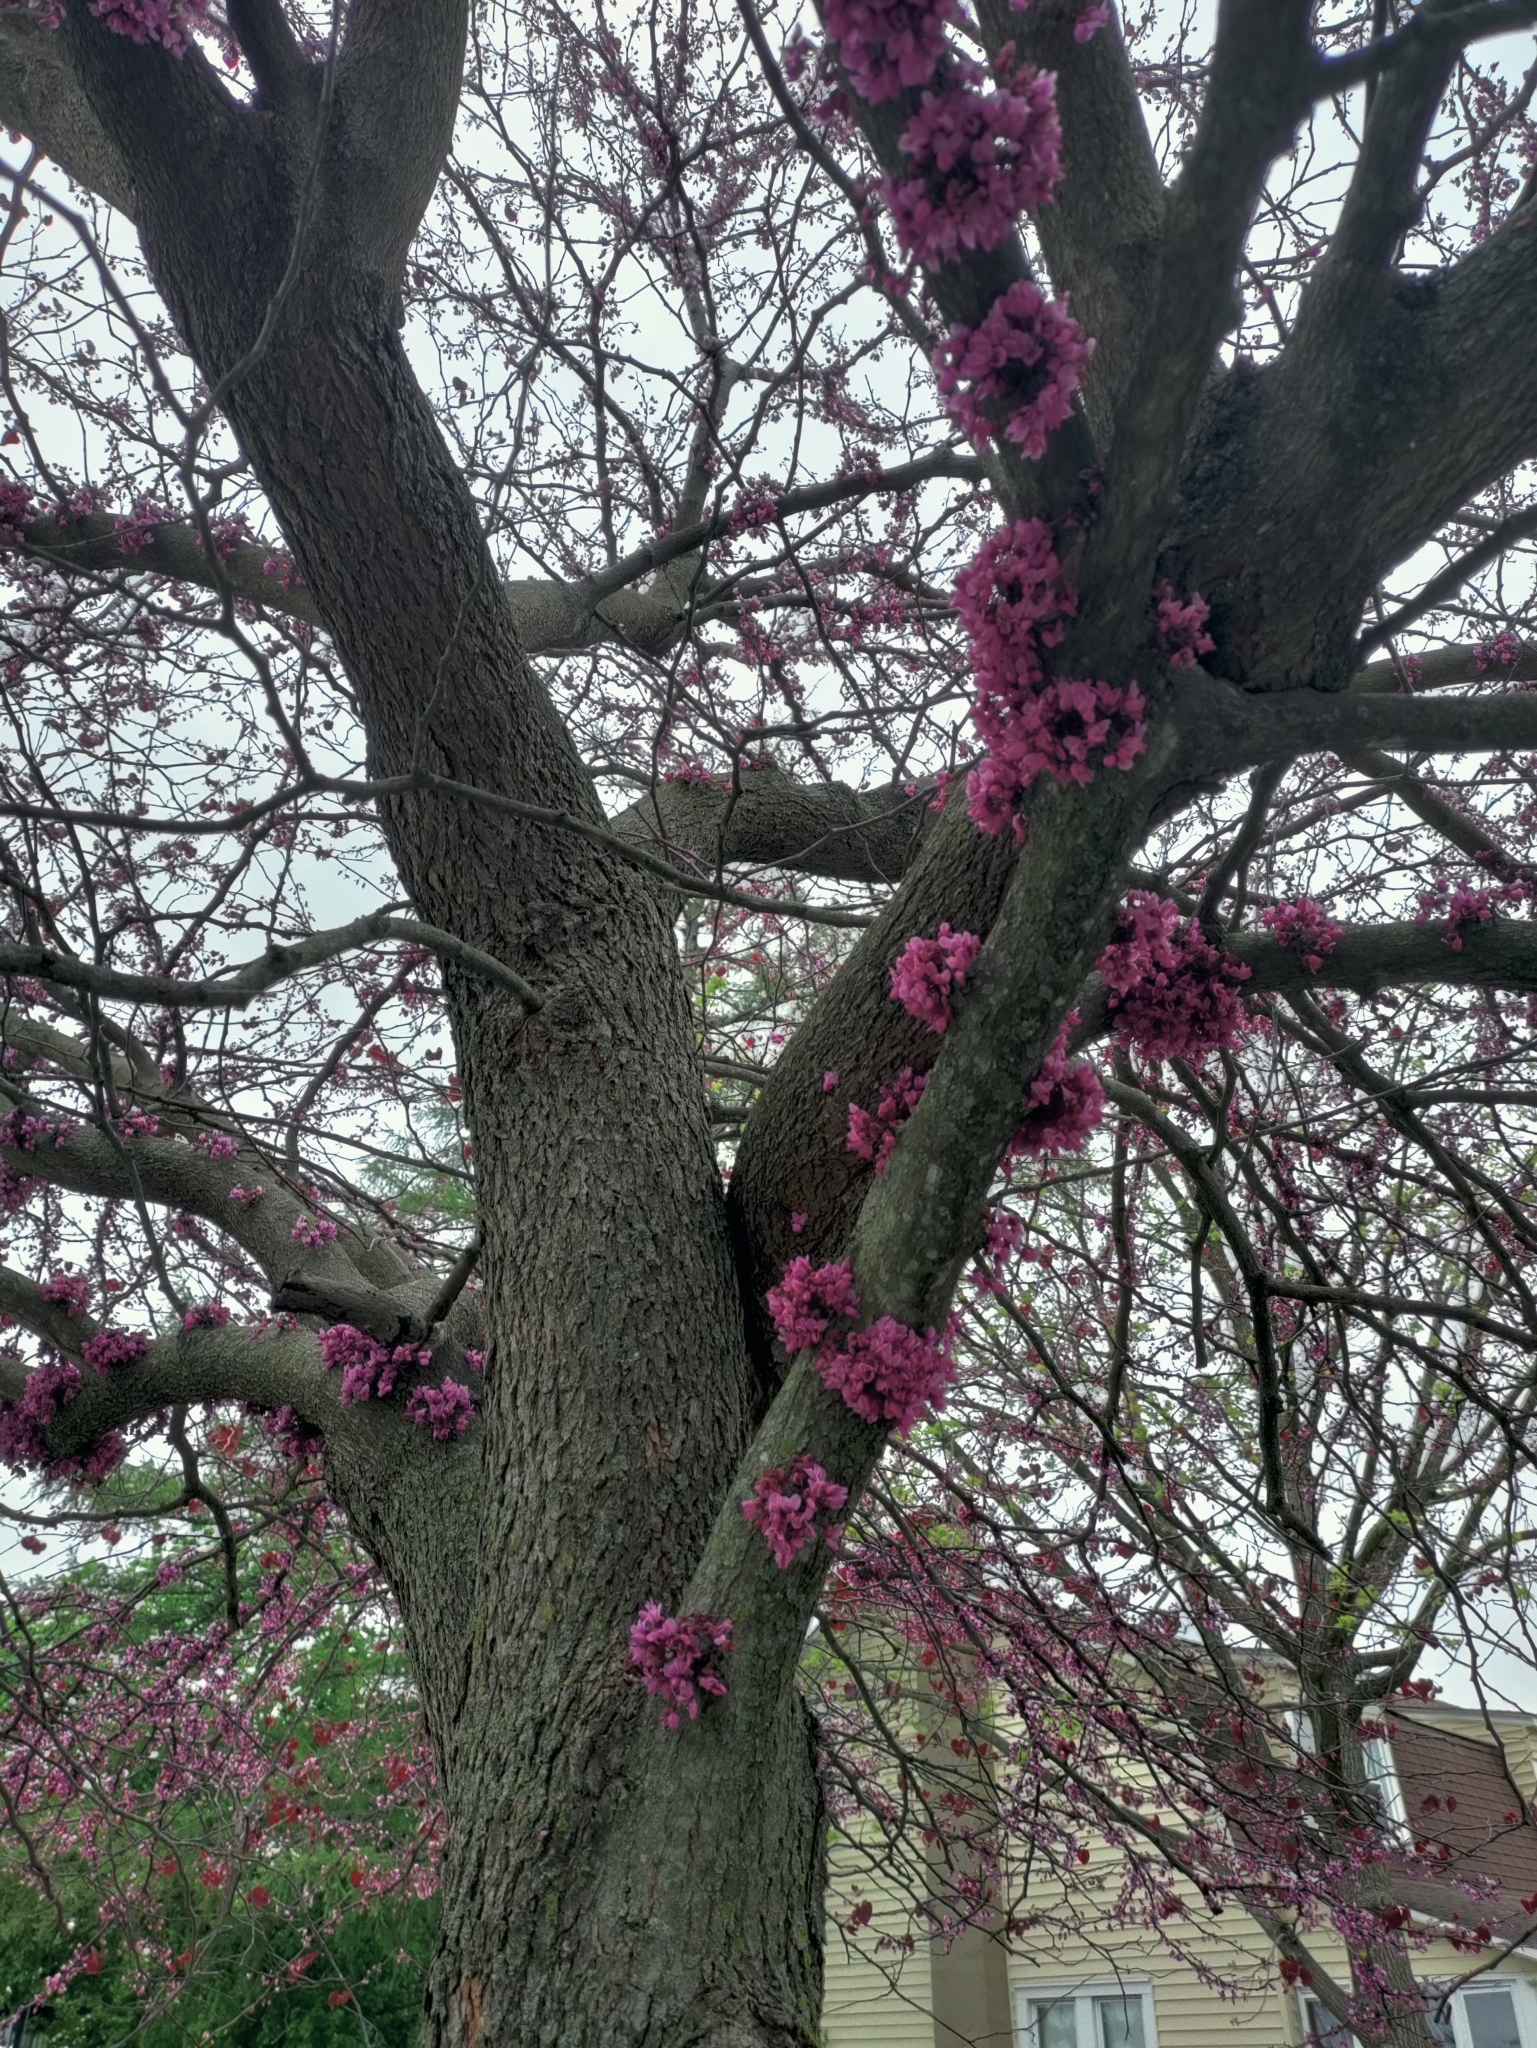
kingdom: Plantae
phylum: Tracheophyta
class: Magnoliopsida
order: Fabales
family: Fabaceae
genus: Cercis
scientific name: Cercis canadensis
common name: Eastern redbud
